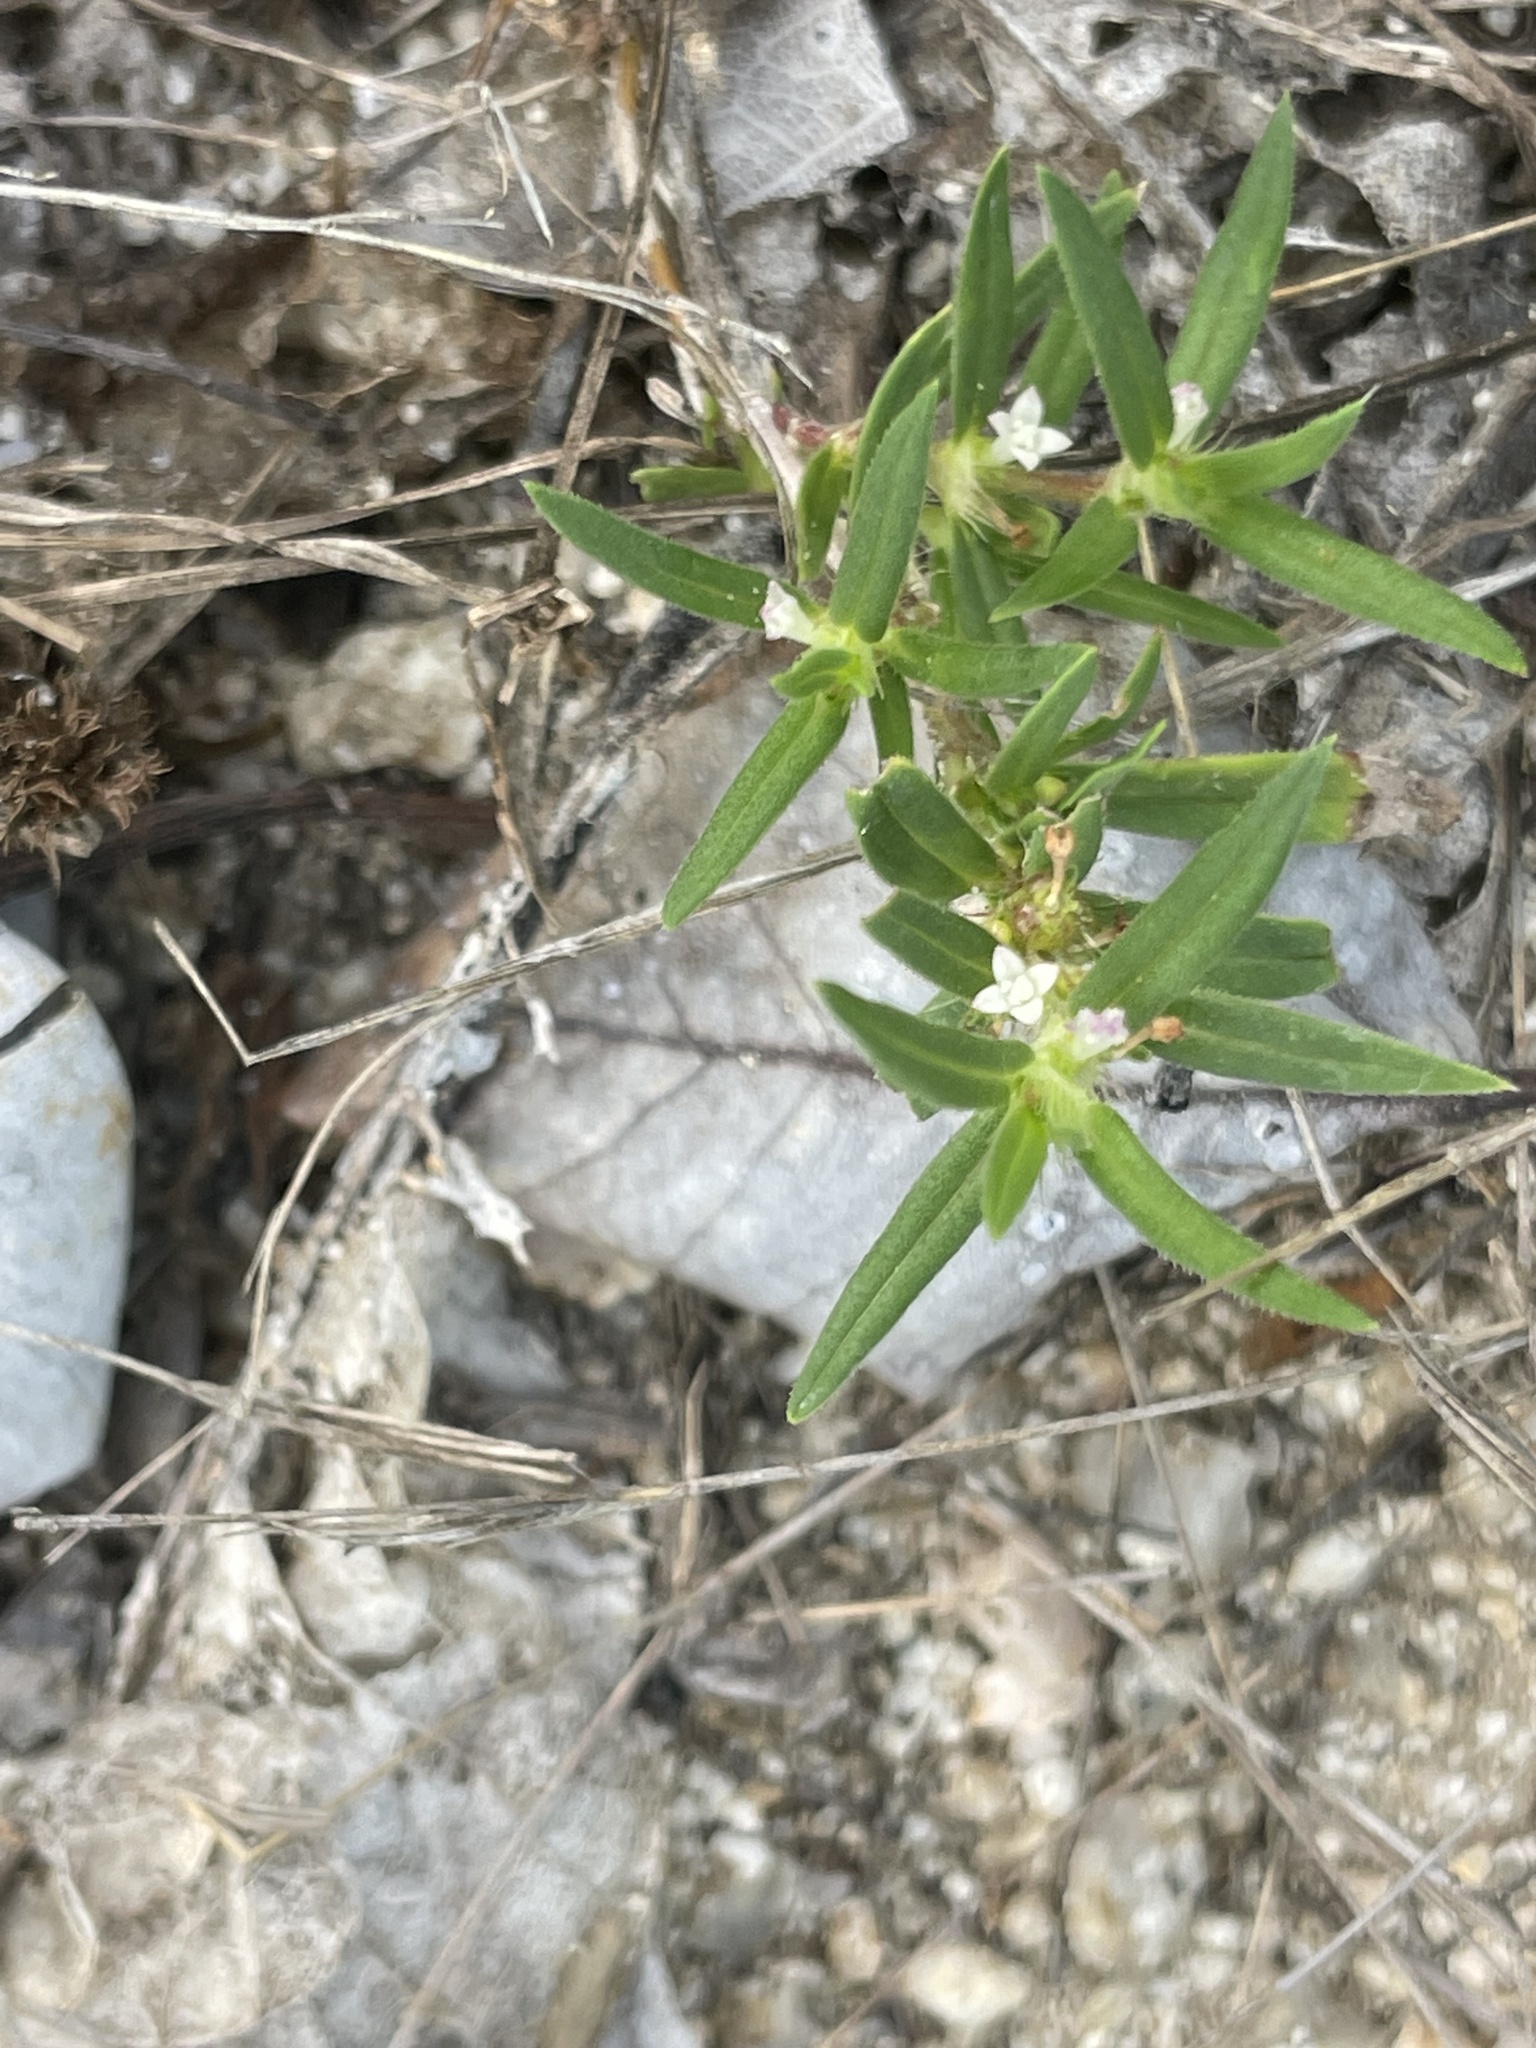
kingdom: Plantae
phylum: Tracheophyta
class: Magnoliopsida
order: Gentianales
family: Rubiaceae
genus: Hexasepalum
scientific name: Hexasepalum teres
